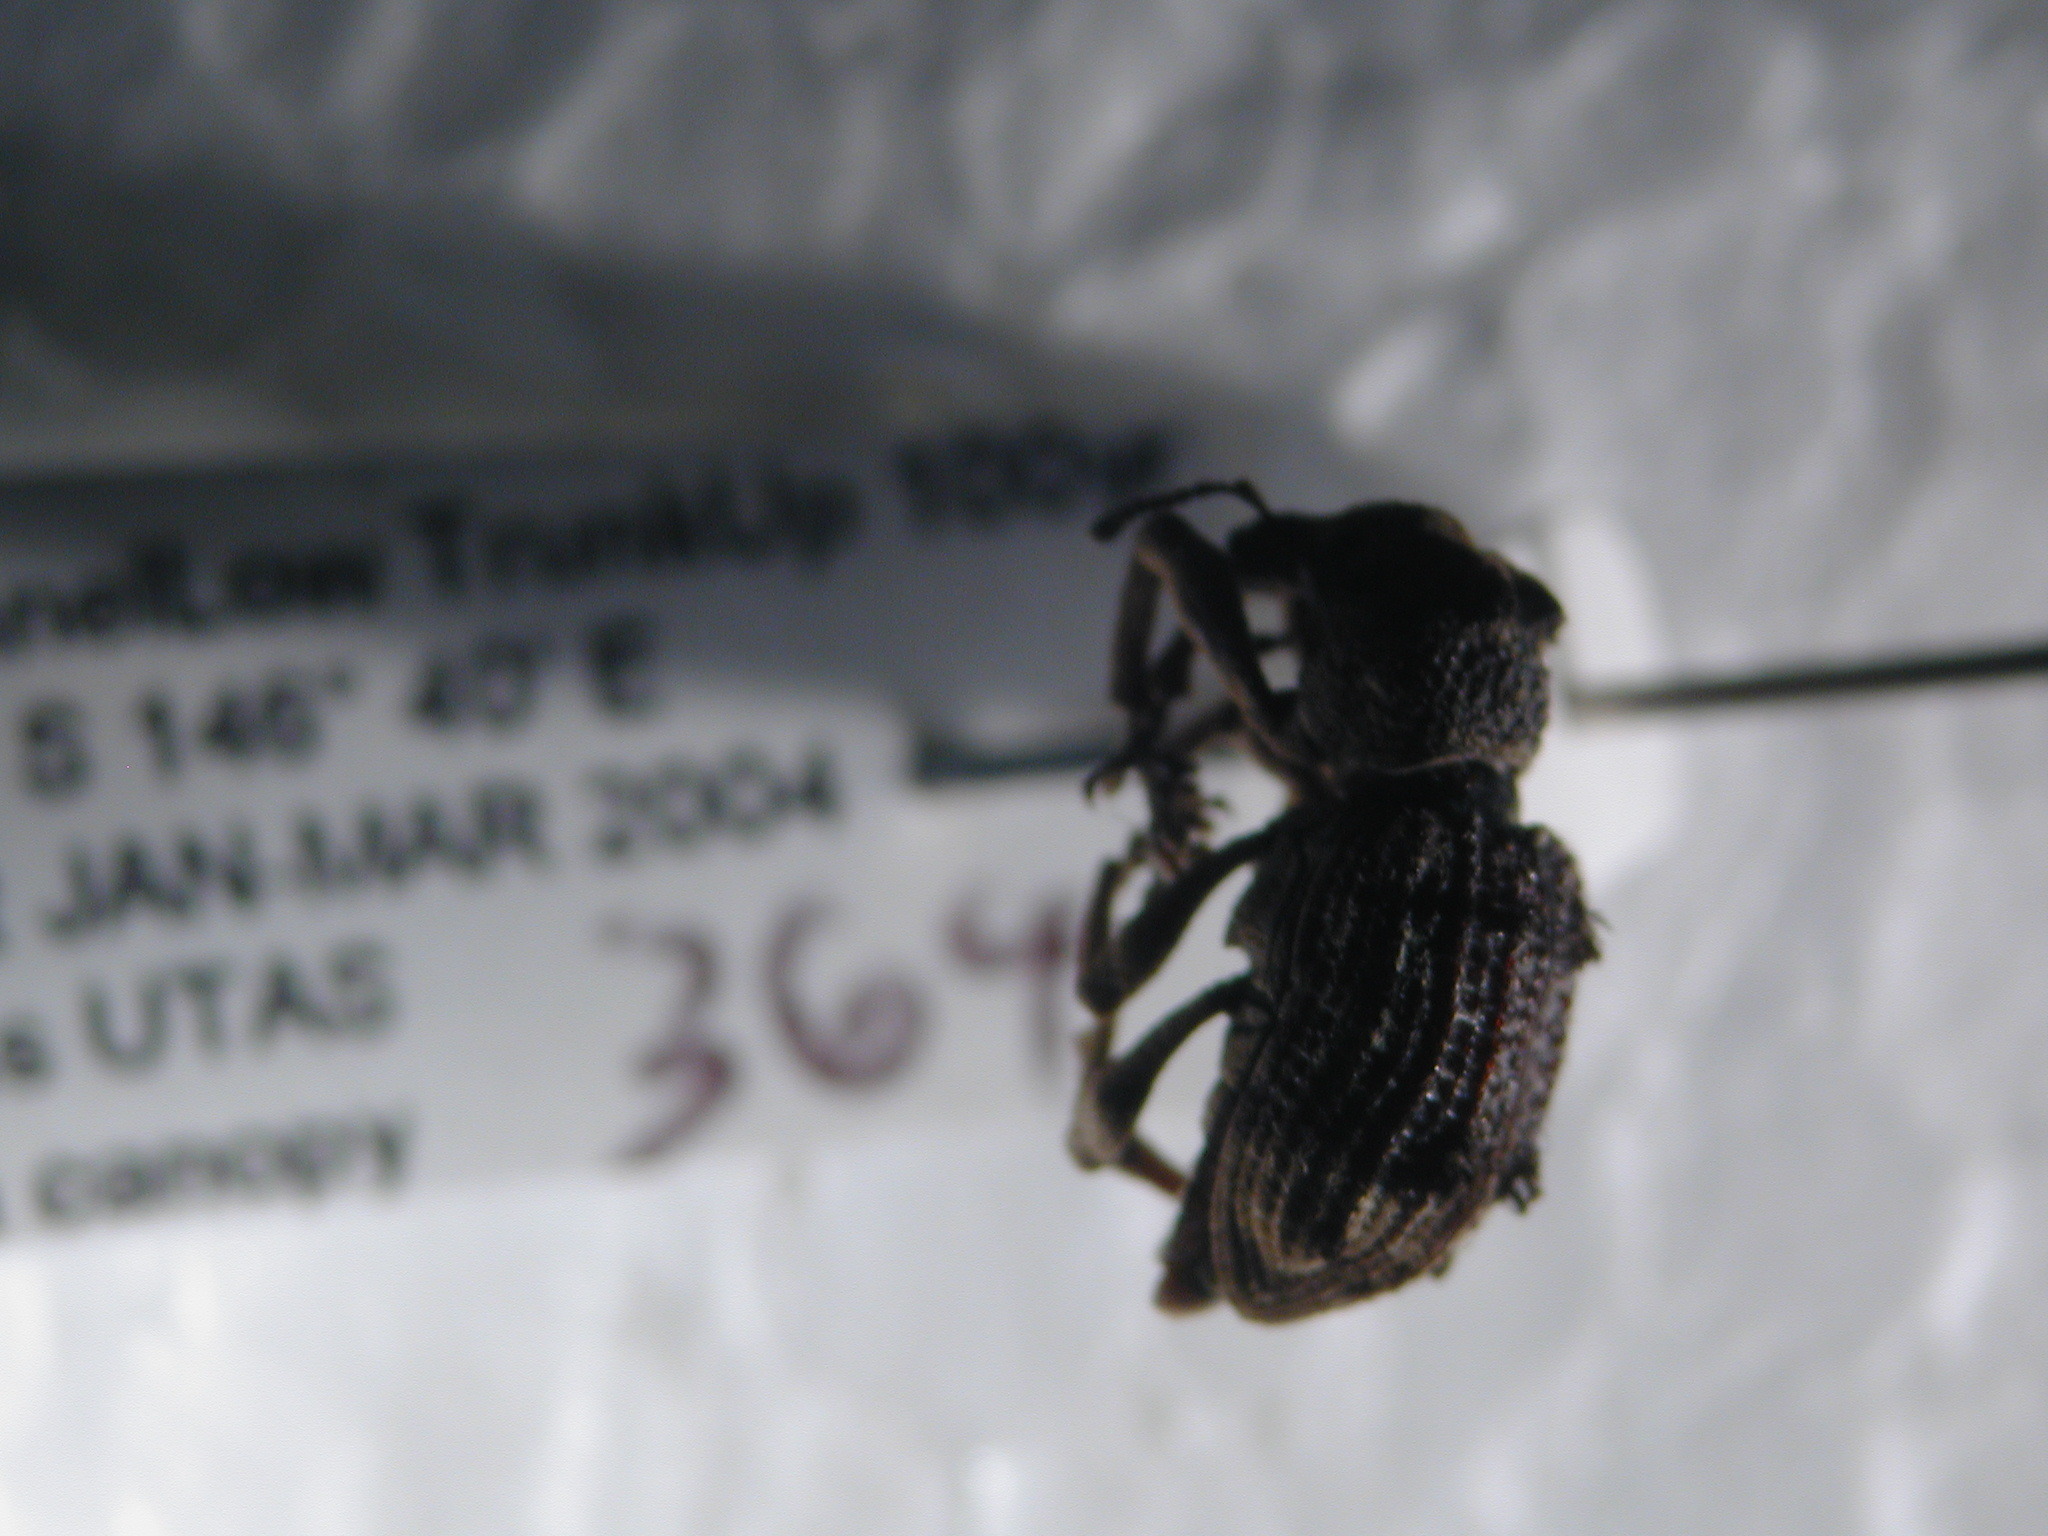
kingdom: Animalia
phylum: Arthropoda
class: Insecta
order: Coleoptera
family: Curculionidae
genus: Aades
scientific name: Aades cultratus
